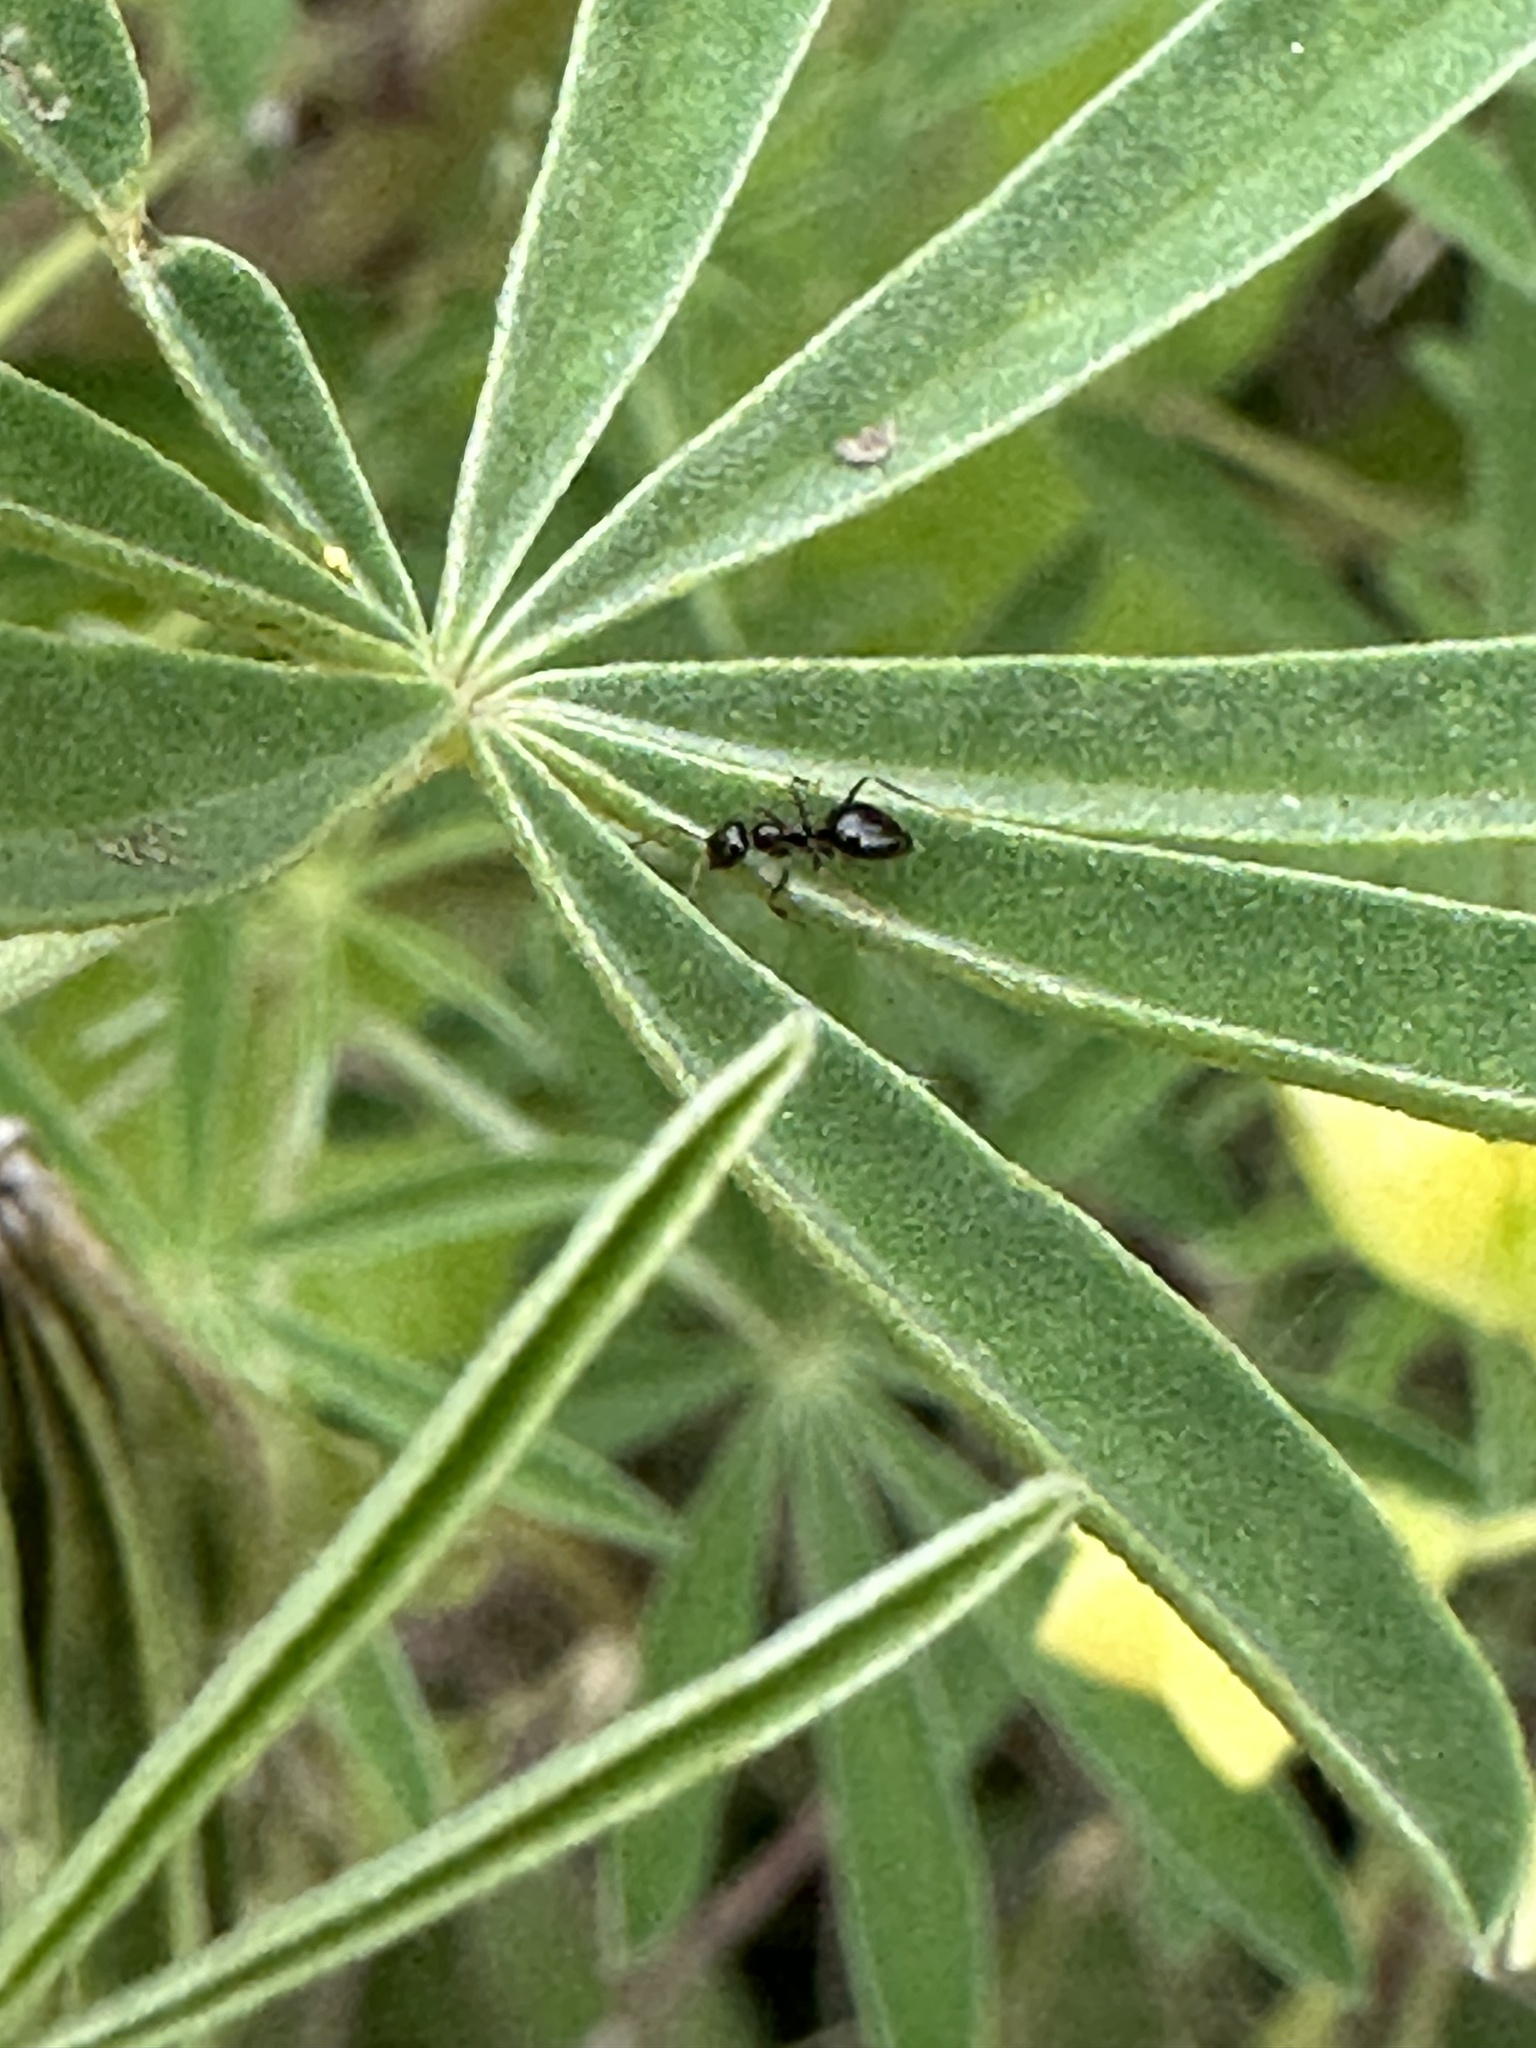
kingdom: Animalia
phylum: Arthropoda
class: Insecta
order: Hymenoptera
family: Formicidae
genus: Prenolepis
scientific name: Prenolepis imparis
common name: Small honey ant
